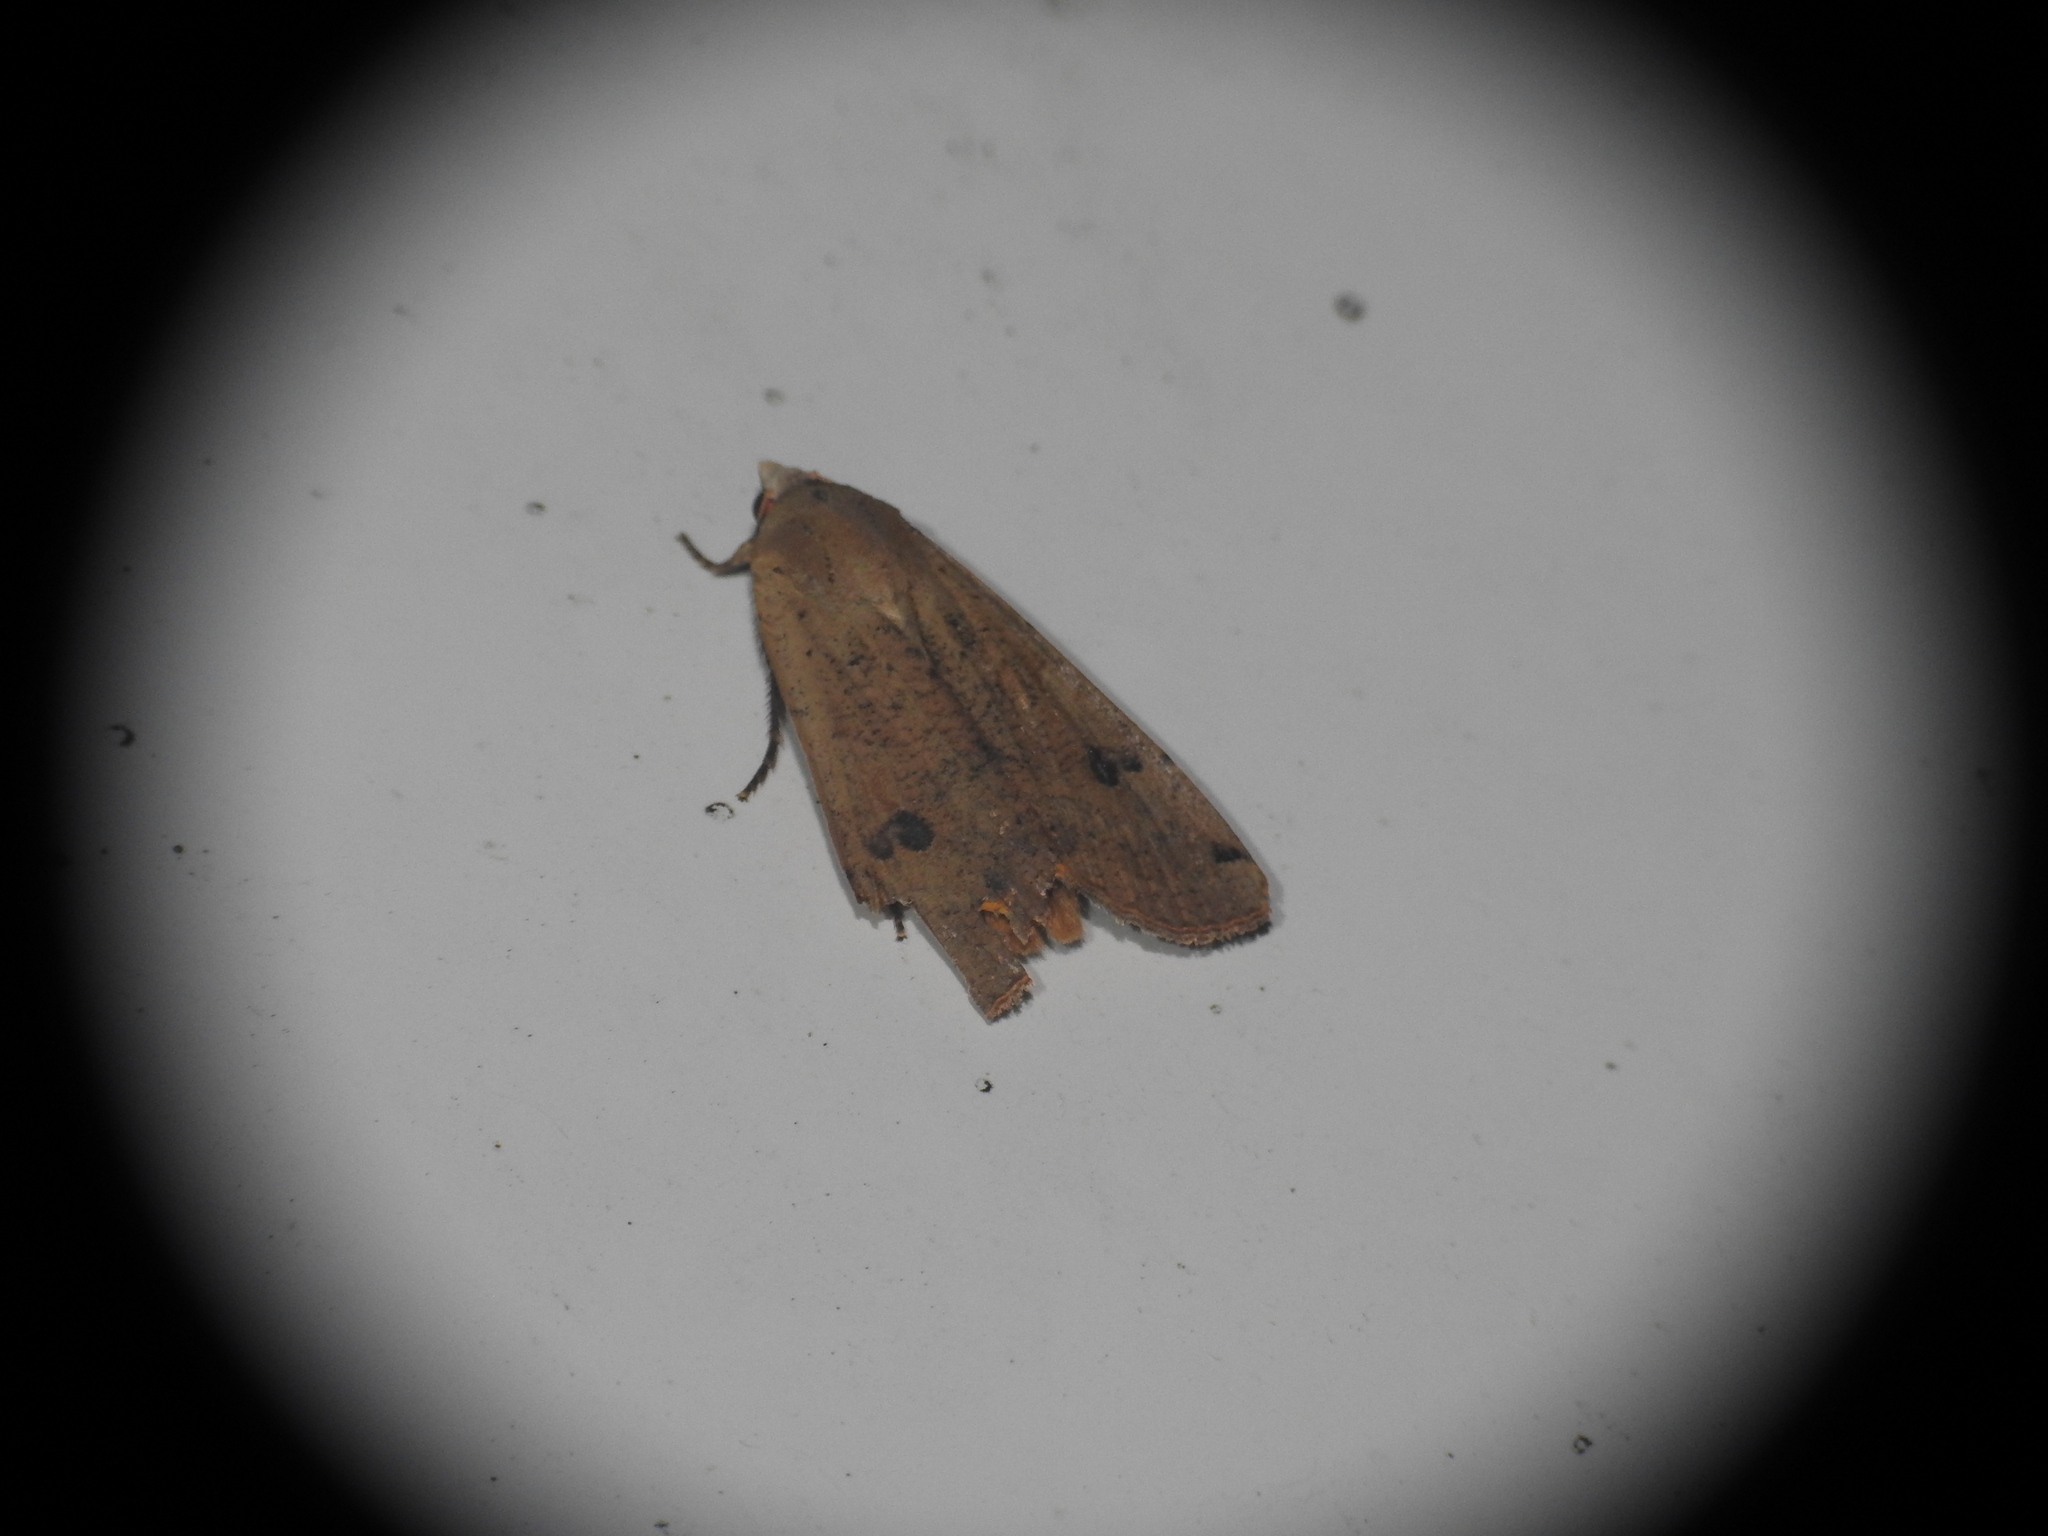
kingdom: Animalia
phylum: Arthropoda
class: Insecta
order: Lepidoptera
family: Noctuidae
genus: Noctua
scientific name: Noctua pronuba
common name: Large yellow underwing
